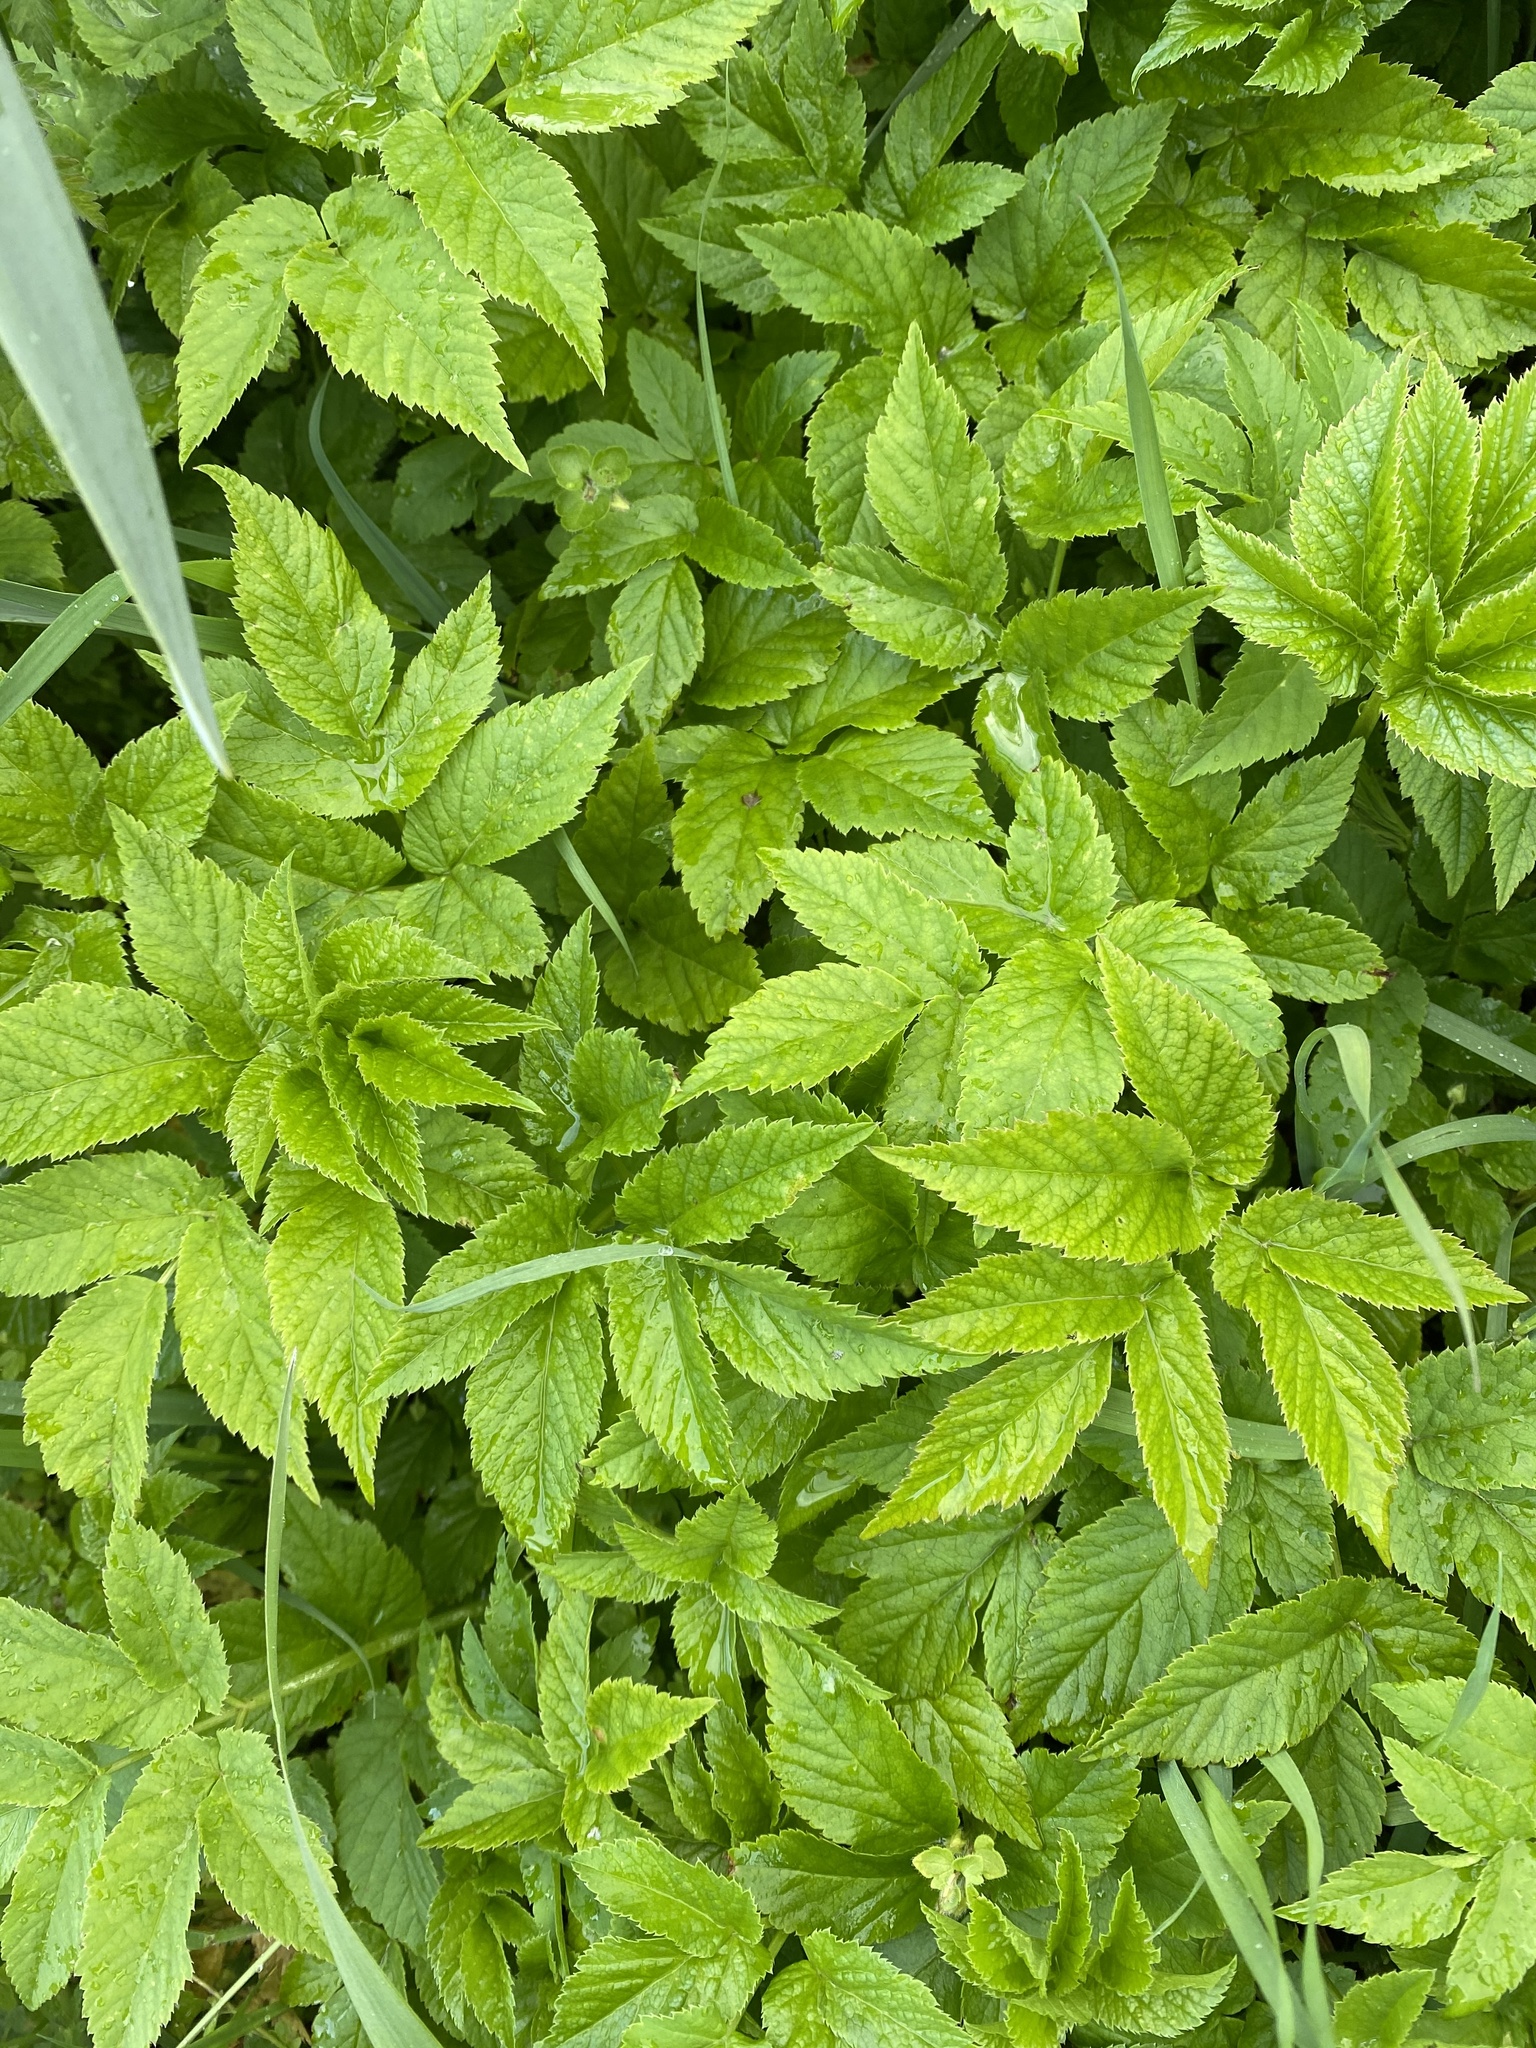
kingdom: Plantae
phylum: Tracheophyta
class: Magnoliopsida
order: Apiales
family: Apiaceae
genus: Aegopodium
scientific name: Aegopodium podagraria
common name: Ground-elder
